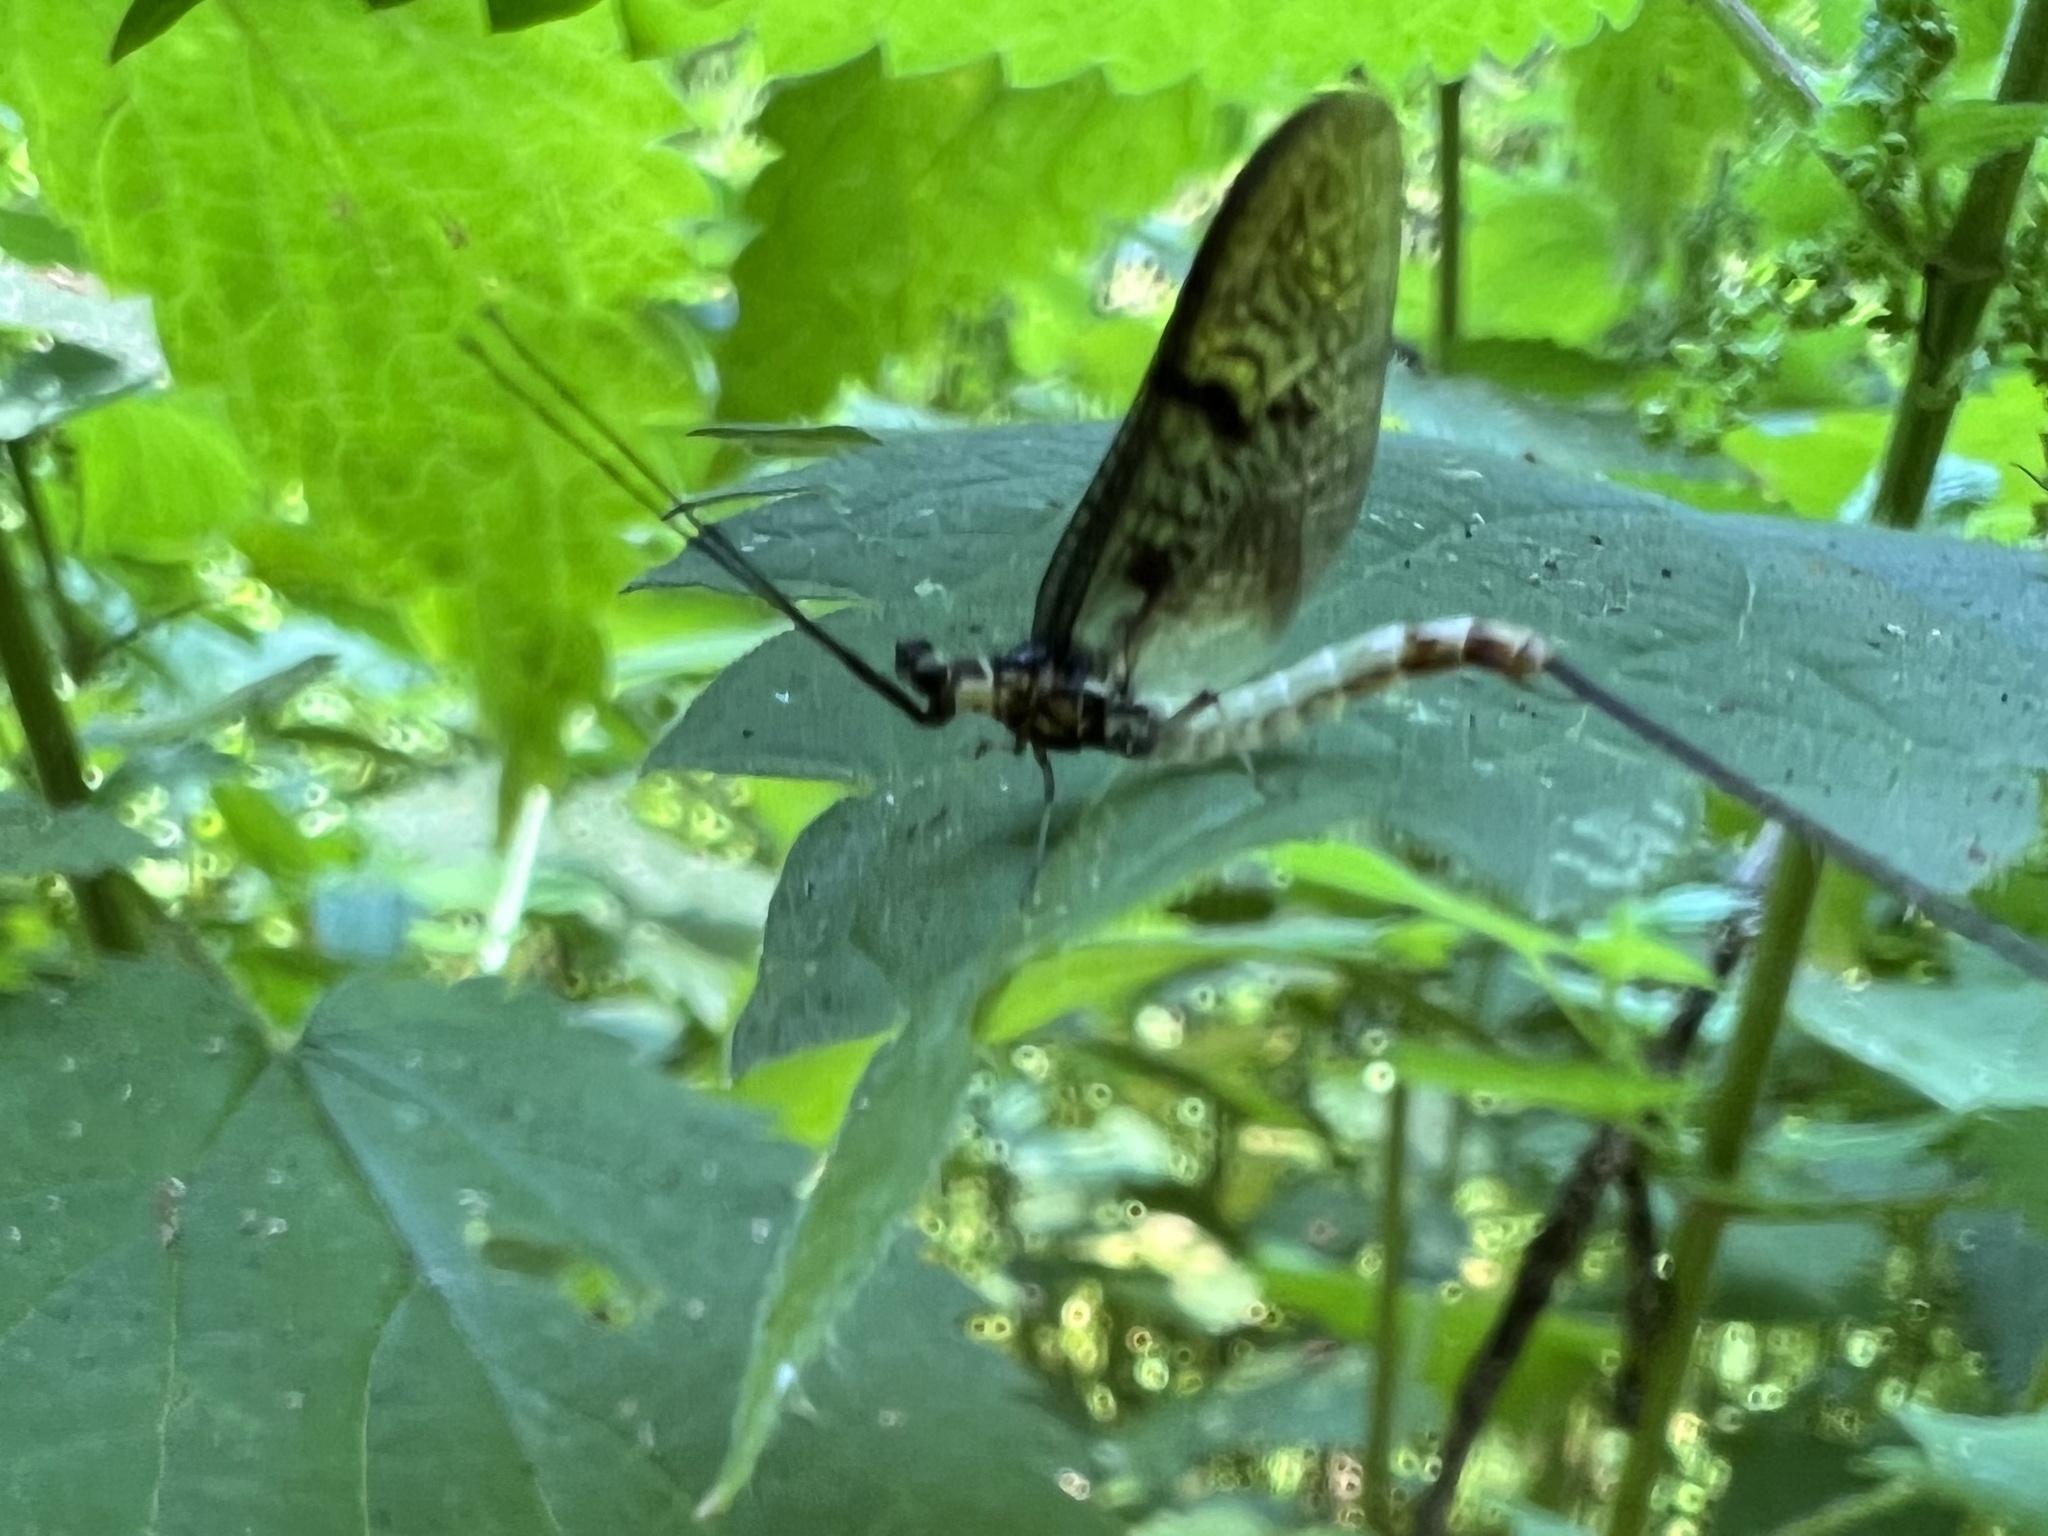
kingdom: Animalia
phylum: Arthropoda
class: Insecta
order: Ephemeroptera
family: Ephemeridae
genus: Ephemera
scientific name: Ephemera danica
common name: Green dun
